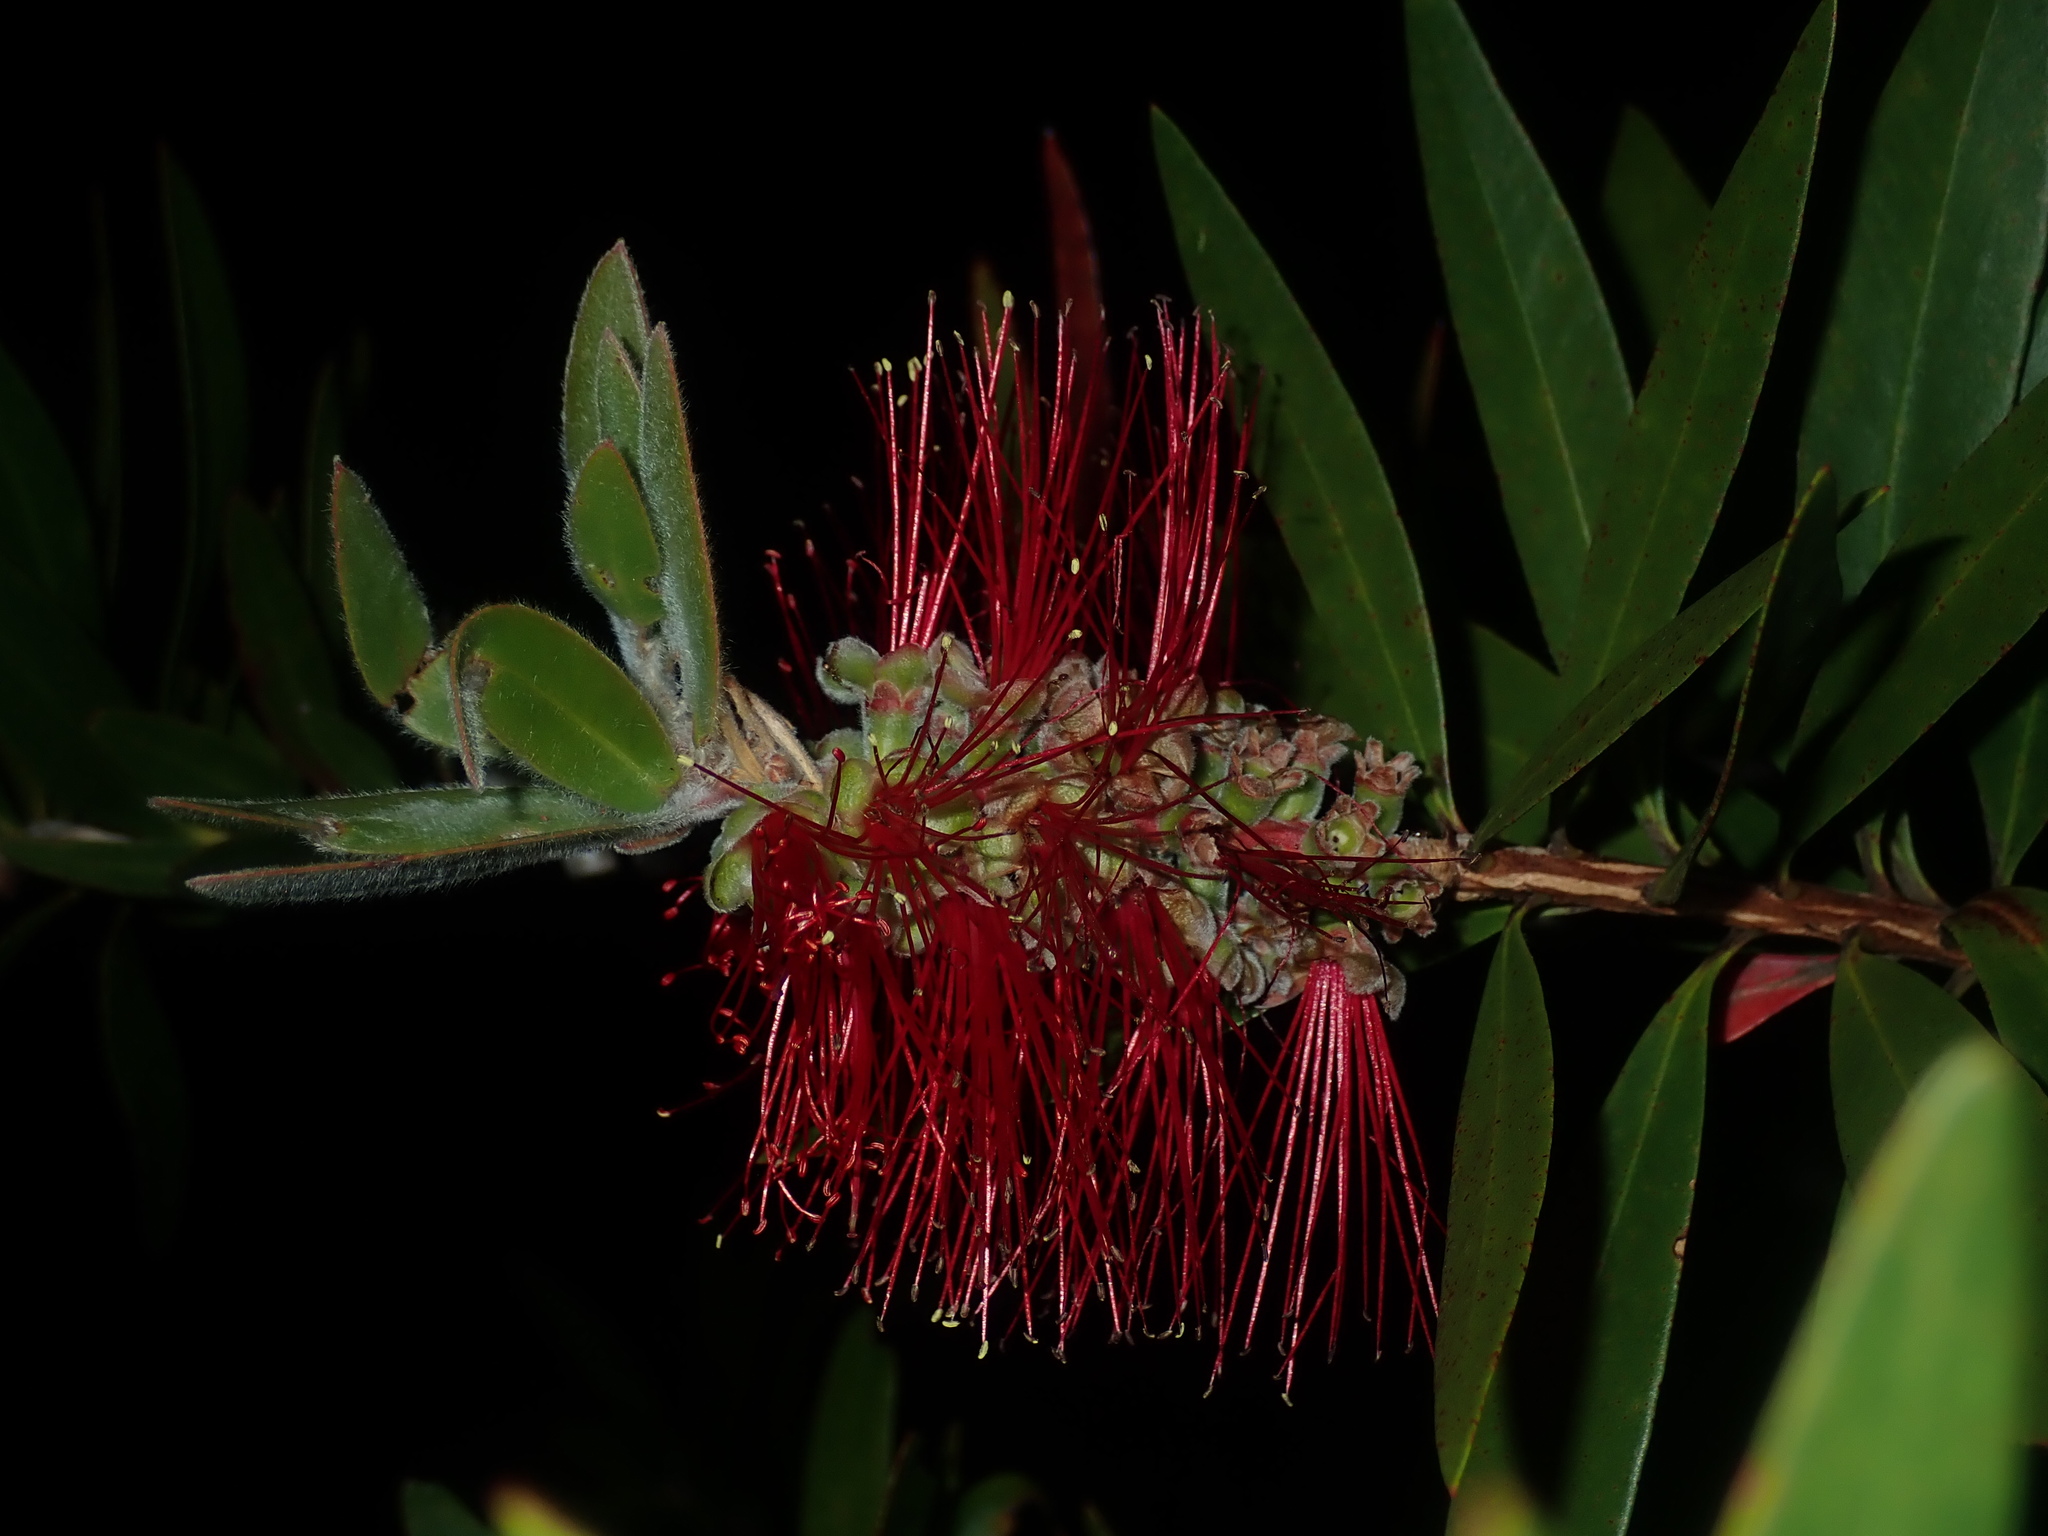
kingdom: Plantae
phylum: Tracheophyta
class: Magnoliopsida
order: Myrtales
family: Myrtaceae
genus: Callistemon
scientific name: Callistemon comboynensis
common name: Cliff bottlebrush
